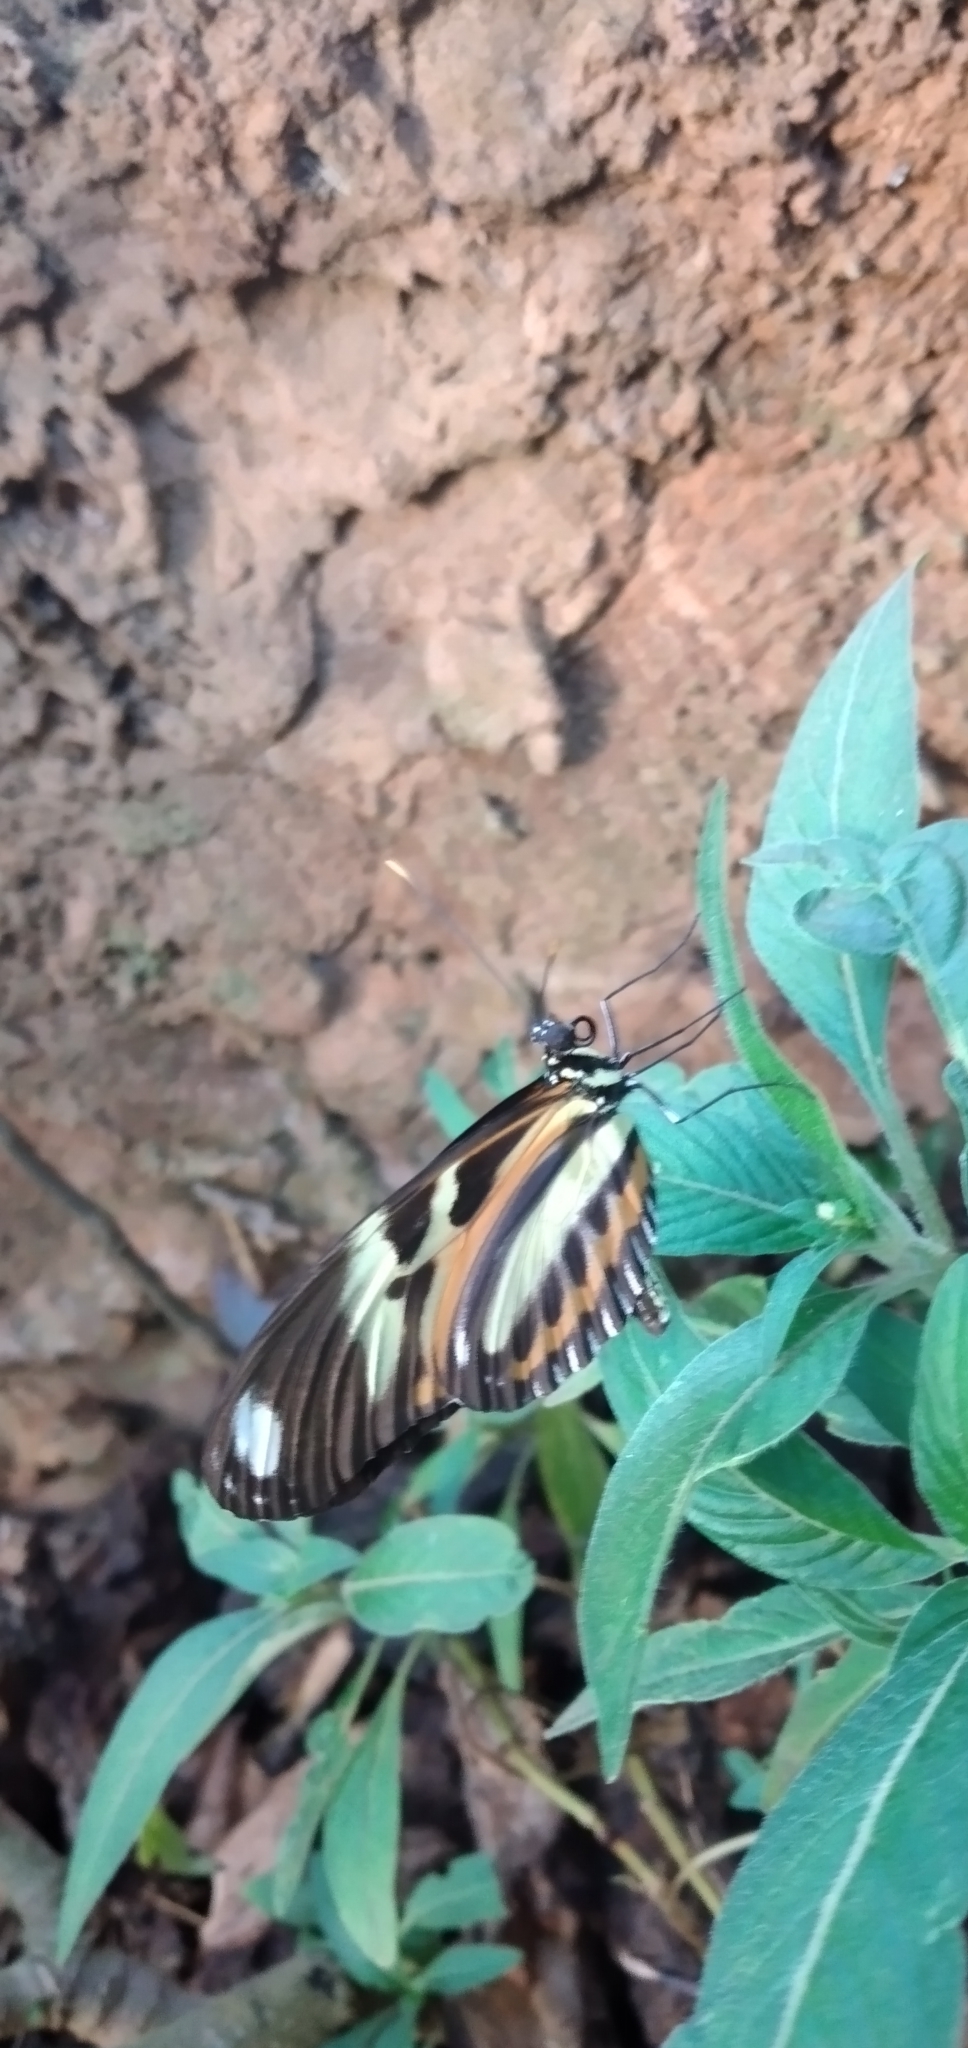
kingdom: Animalia
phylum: Arthropoda
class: Insecta
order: Lepidoptera
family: Nymphalidae
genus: Heliconius
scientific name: Heliconius ethilla
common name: Ethilia longwing
